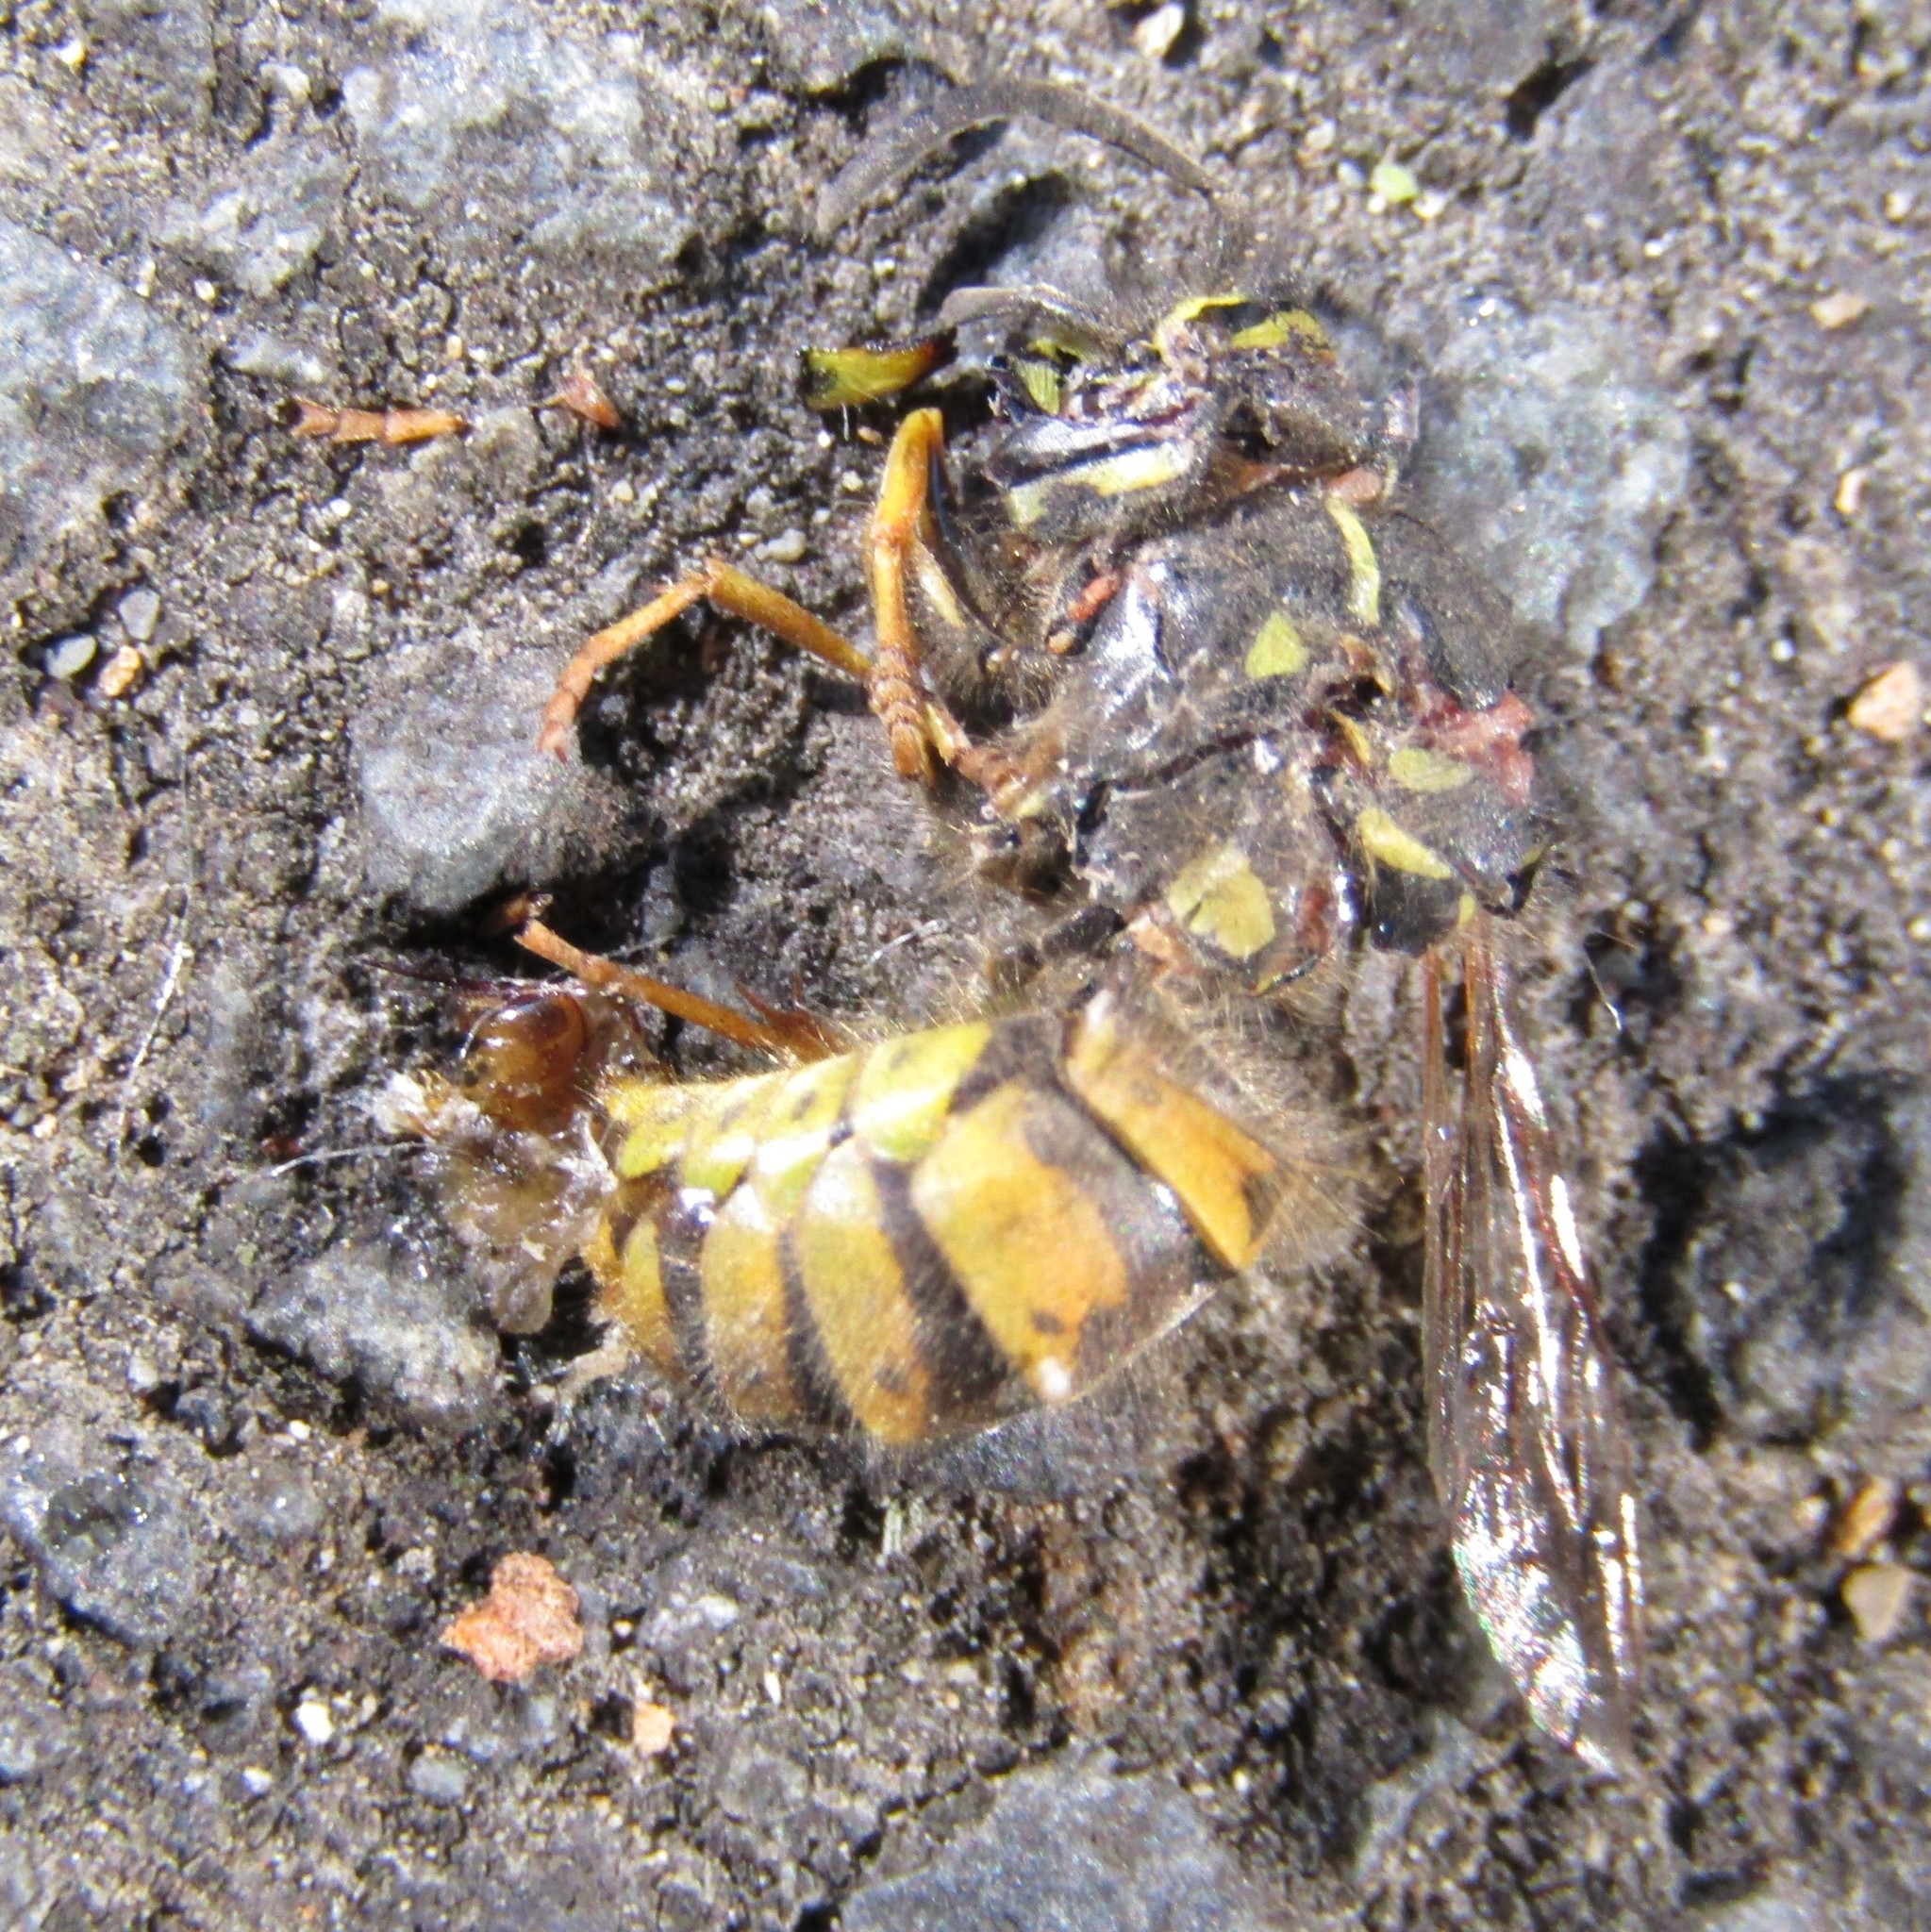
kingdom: Animalia
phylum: Arthropoda
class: Insecta
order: Hymenoptera
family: Vespidae
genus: Vespula
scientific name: Vespula vulgaris
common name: Common wasp
